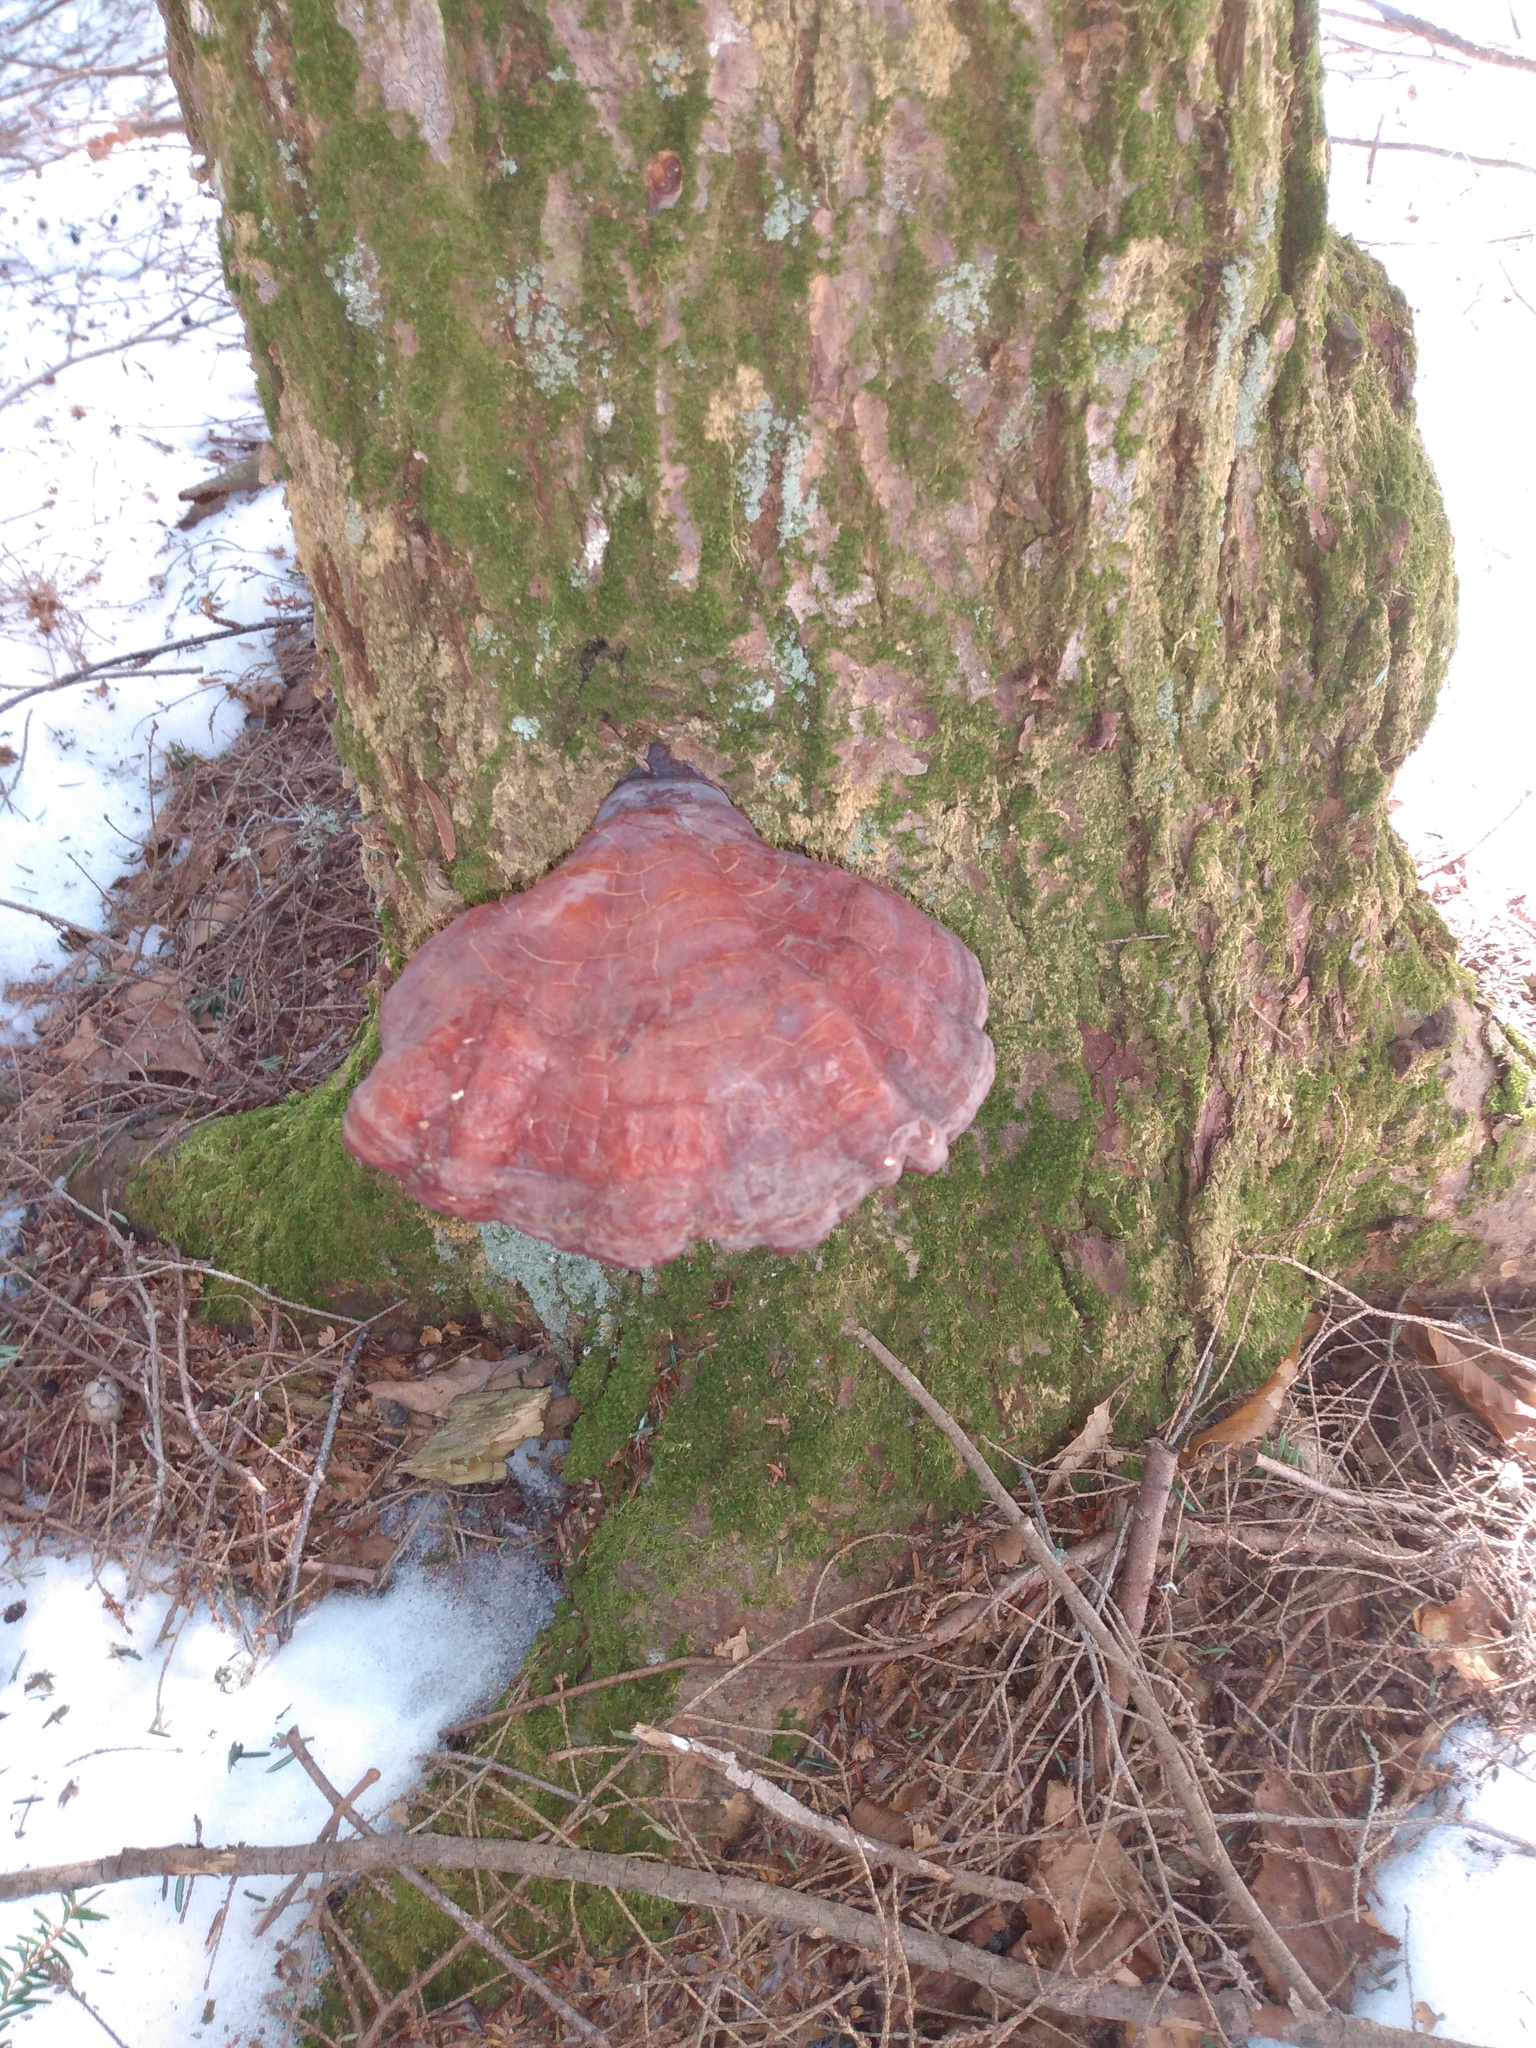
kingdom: Fungi
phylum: Basidiomycota
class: Agaricomycetes
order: Polyporales
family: Polyporaceae
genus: Ganoderma
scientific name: Ganoderma tsugae
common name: Hemlock varnish shelf
